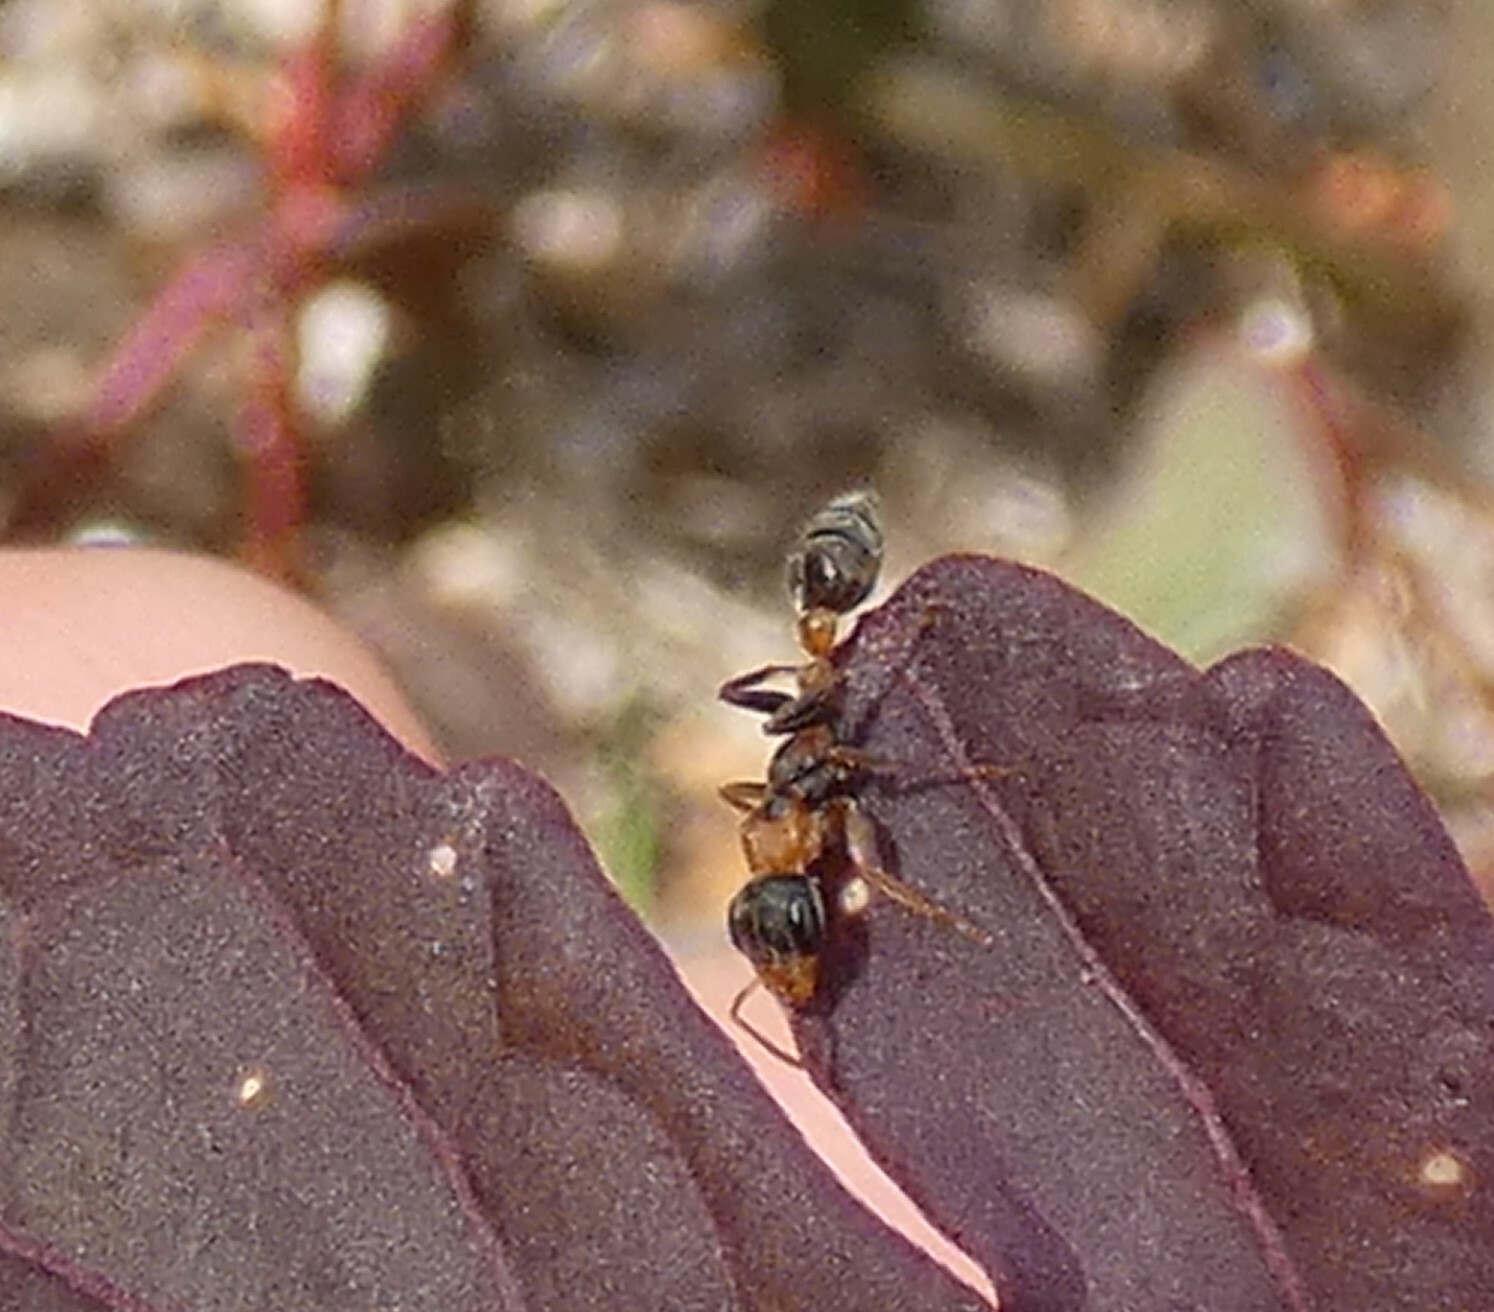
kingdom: Animalia
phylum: Arthropoda
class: Insecta
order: Hymenoptera
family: Formicidae
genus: Pseudomyrmex
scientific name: Pseudomyrmex gracilis
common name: Graceful twig ant
